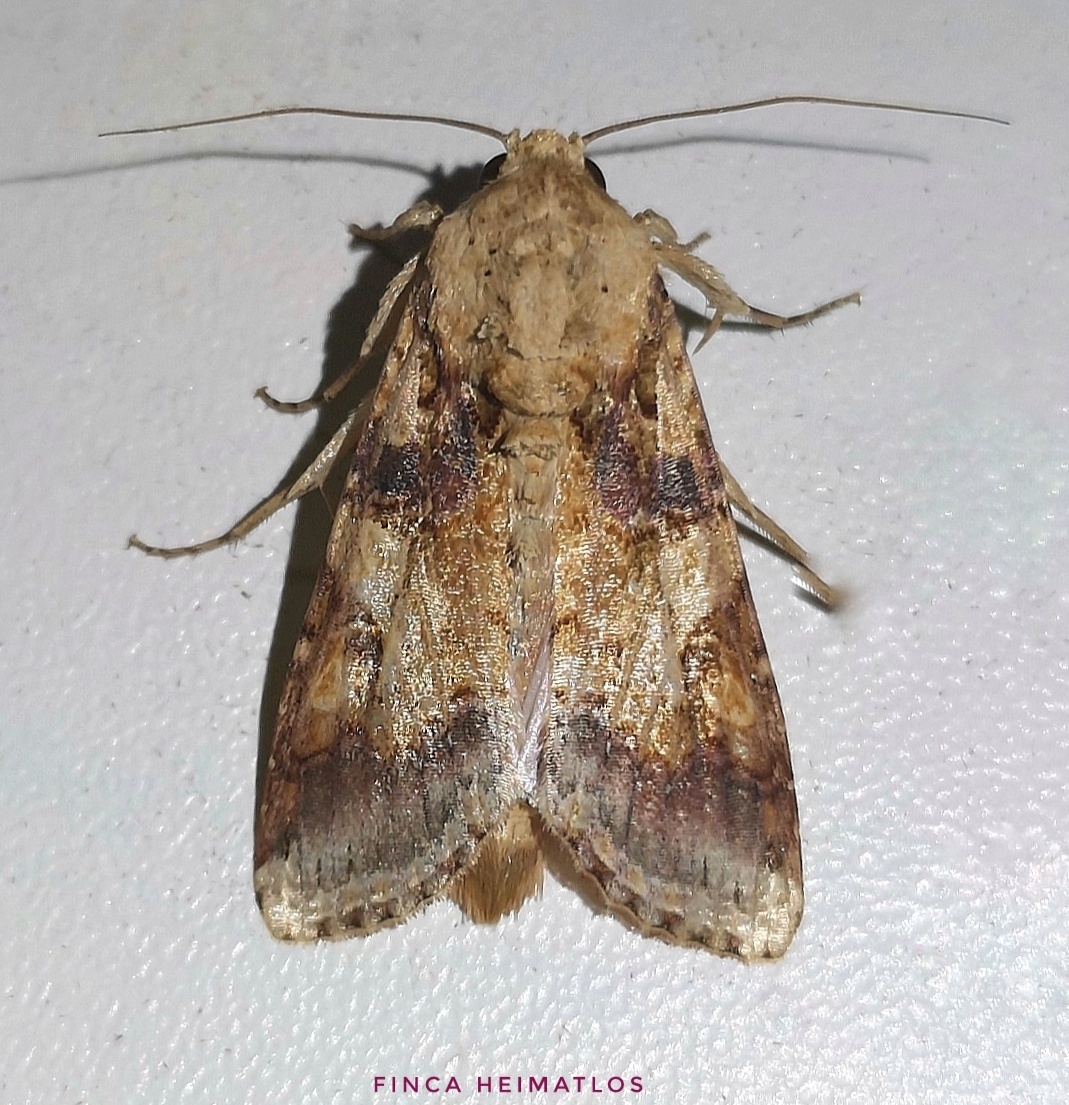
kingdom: Animalia
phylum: Arthropoda
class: Insecta
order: Lepidoptera
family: Noctuidae
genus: Spodoptera
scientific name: Spodoptera latifascia
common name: Velvet armyworm moth
